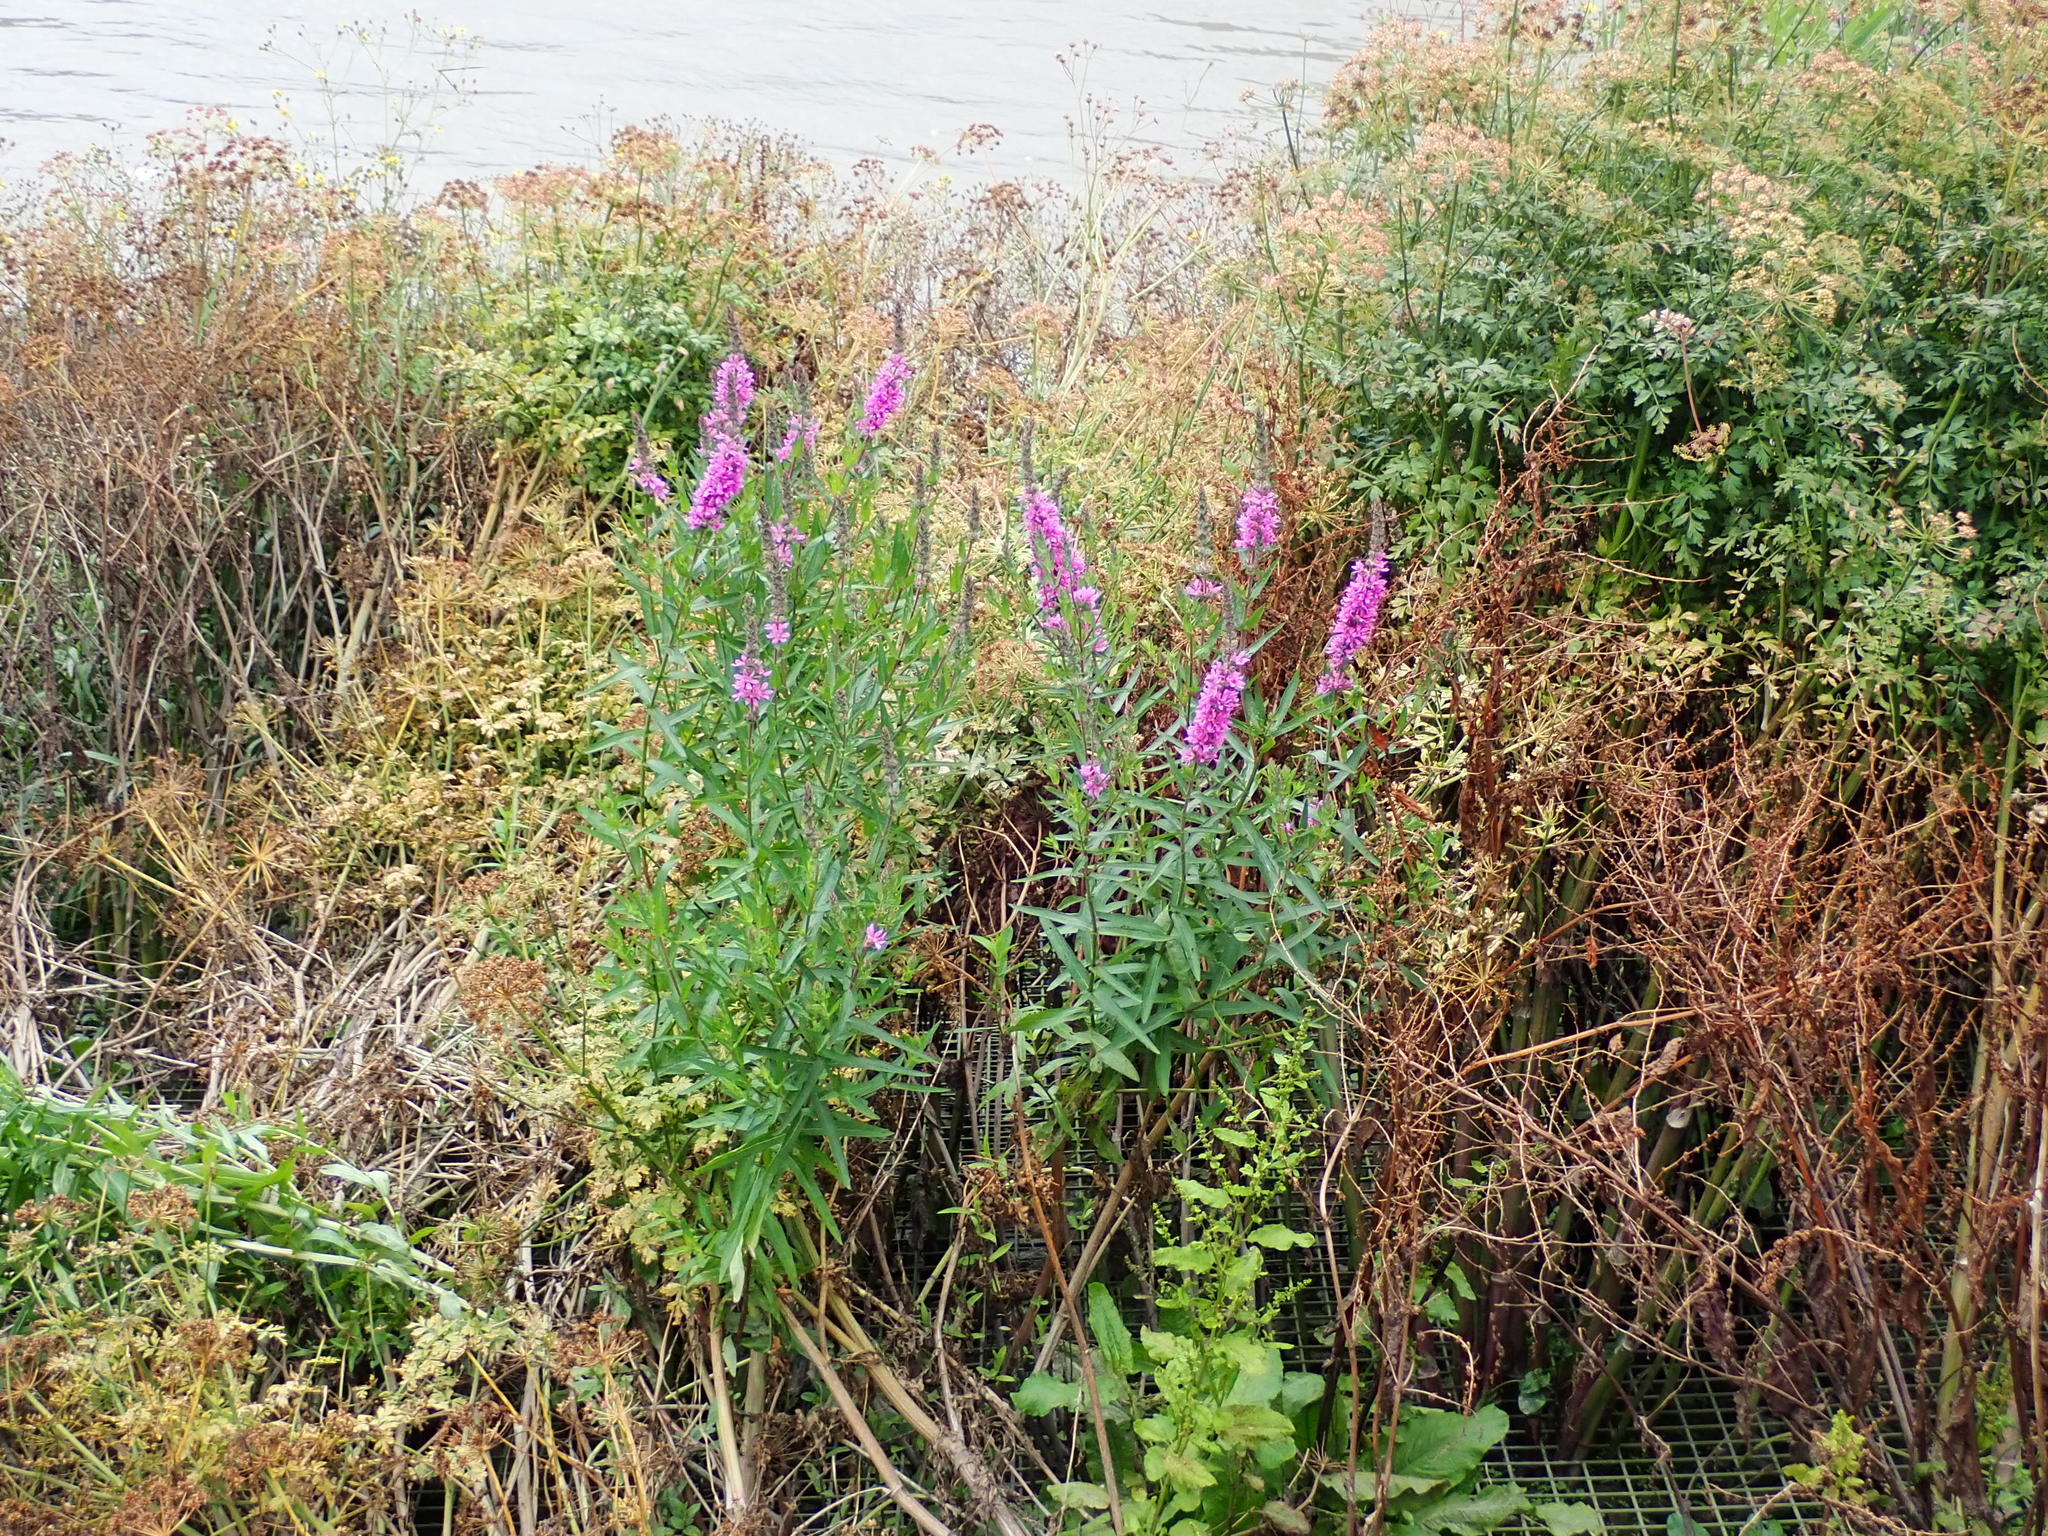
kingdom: Plantae
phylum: Tracheophyta
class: Magnoliopsida
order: Myrtales
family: Lythraceae
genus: Lythrum
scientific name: Lythrum salicaria
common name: Purple loosestrife
